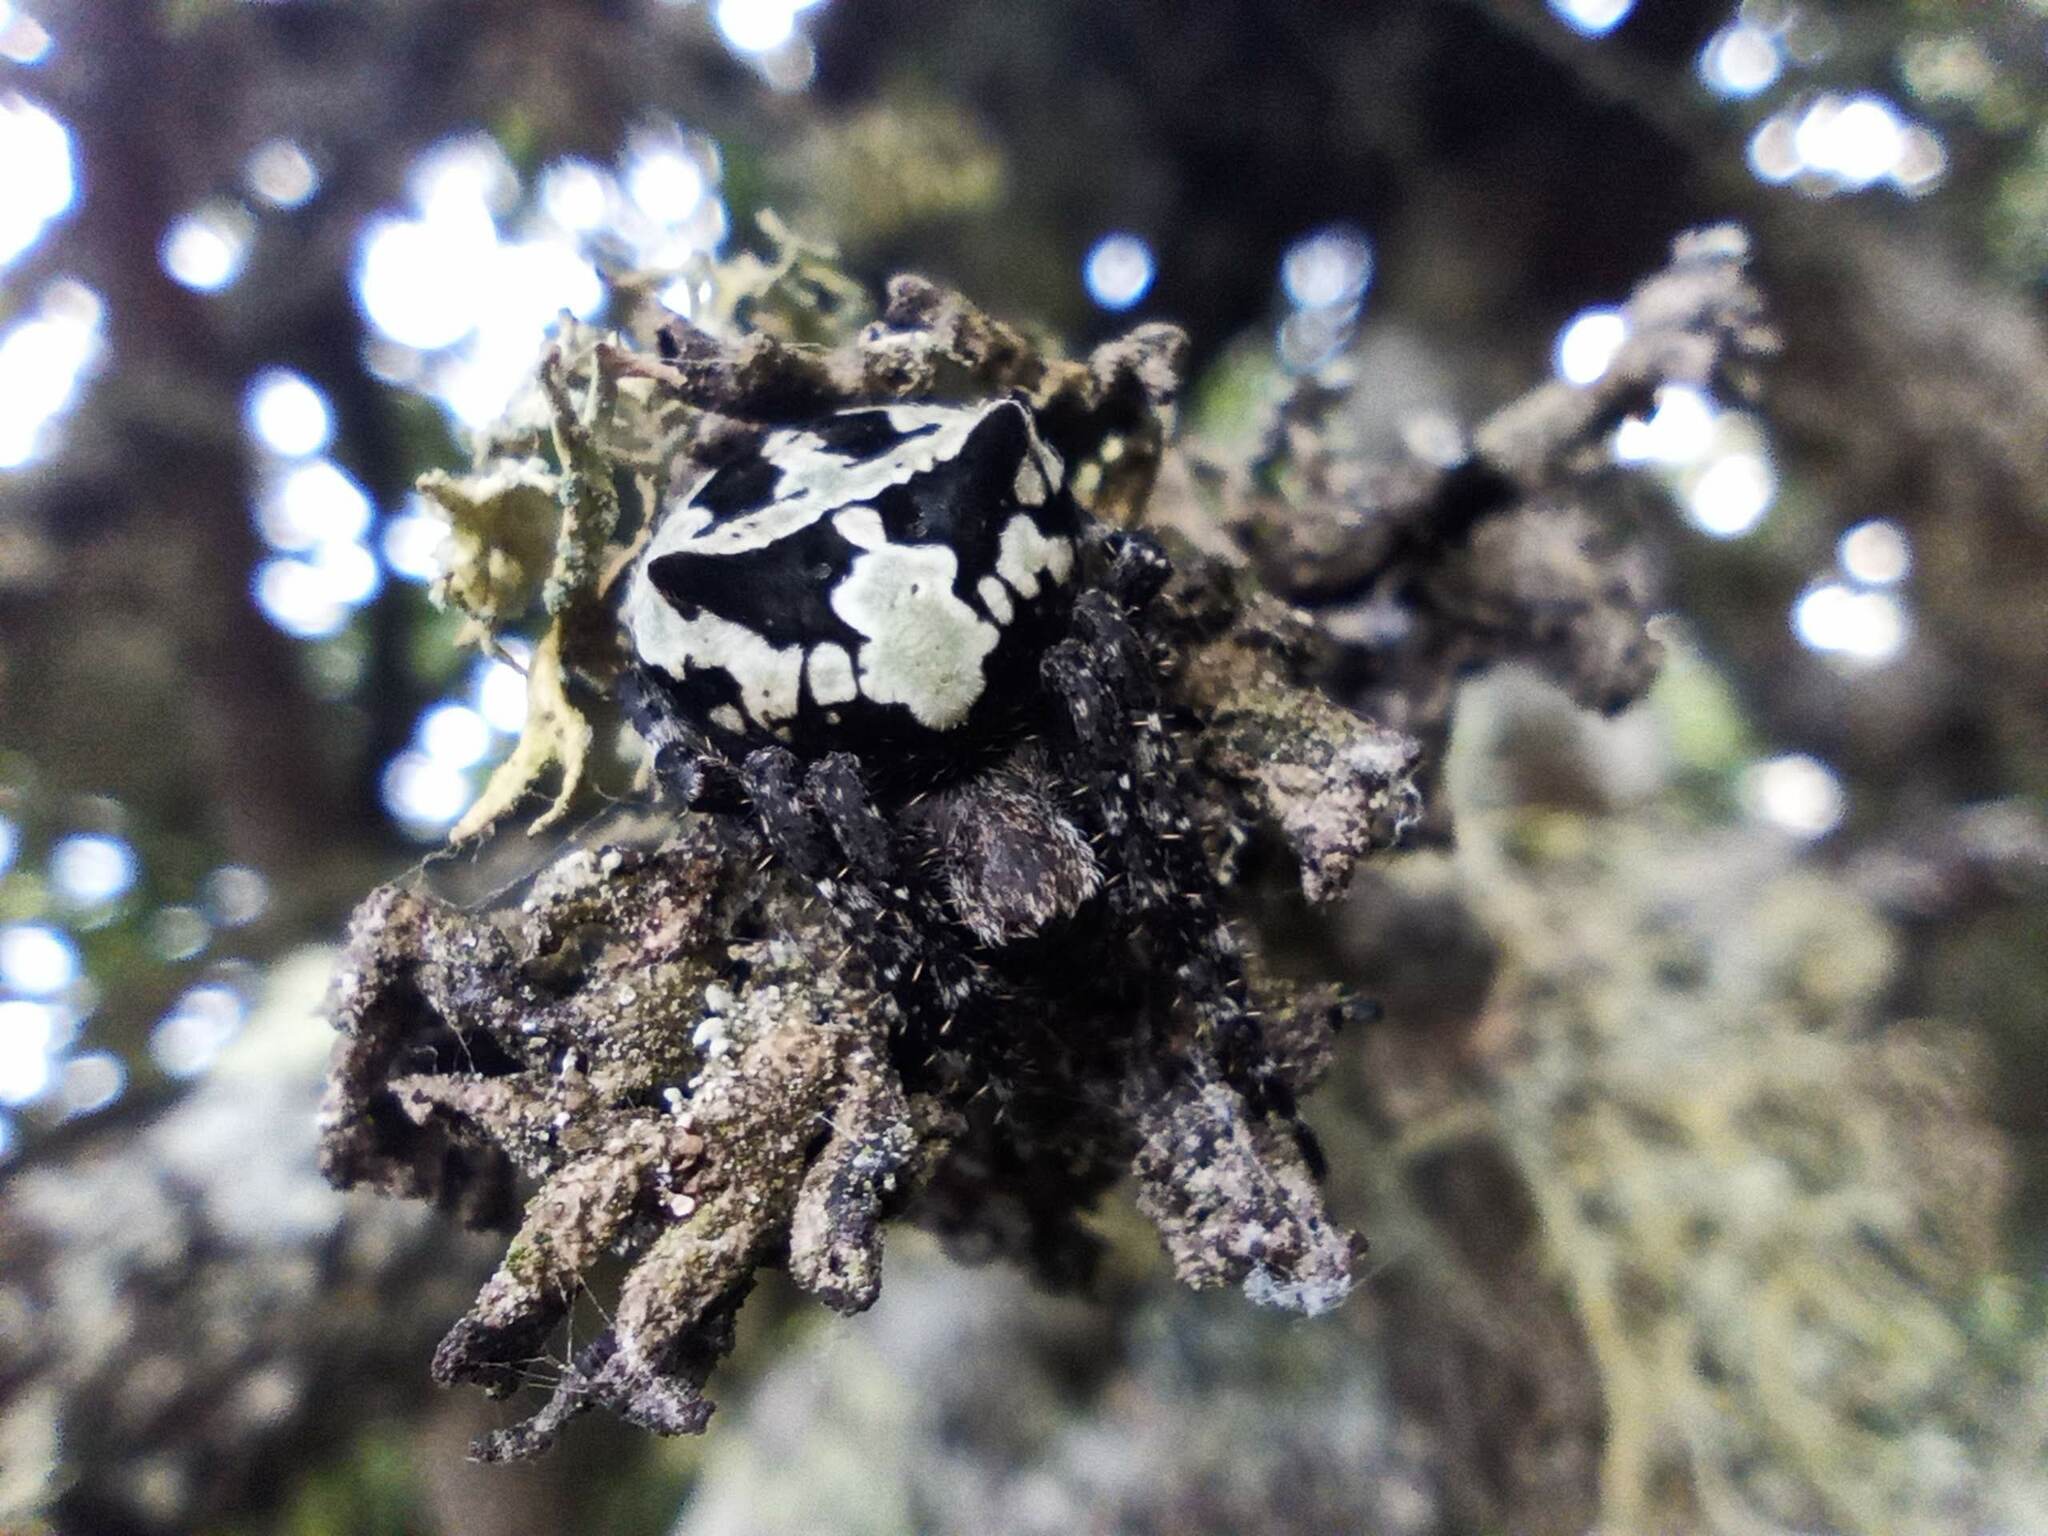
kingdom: Animalia
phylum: Arthropoda
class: Arachnida
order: Araneae
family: Araneidae
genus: Araneus
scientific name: Araneus angulatus
